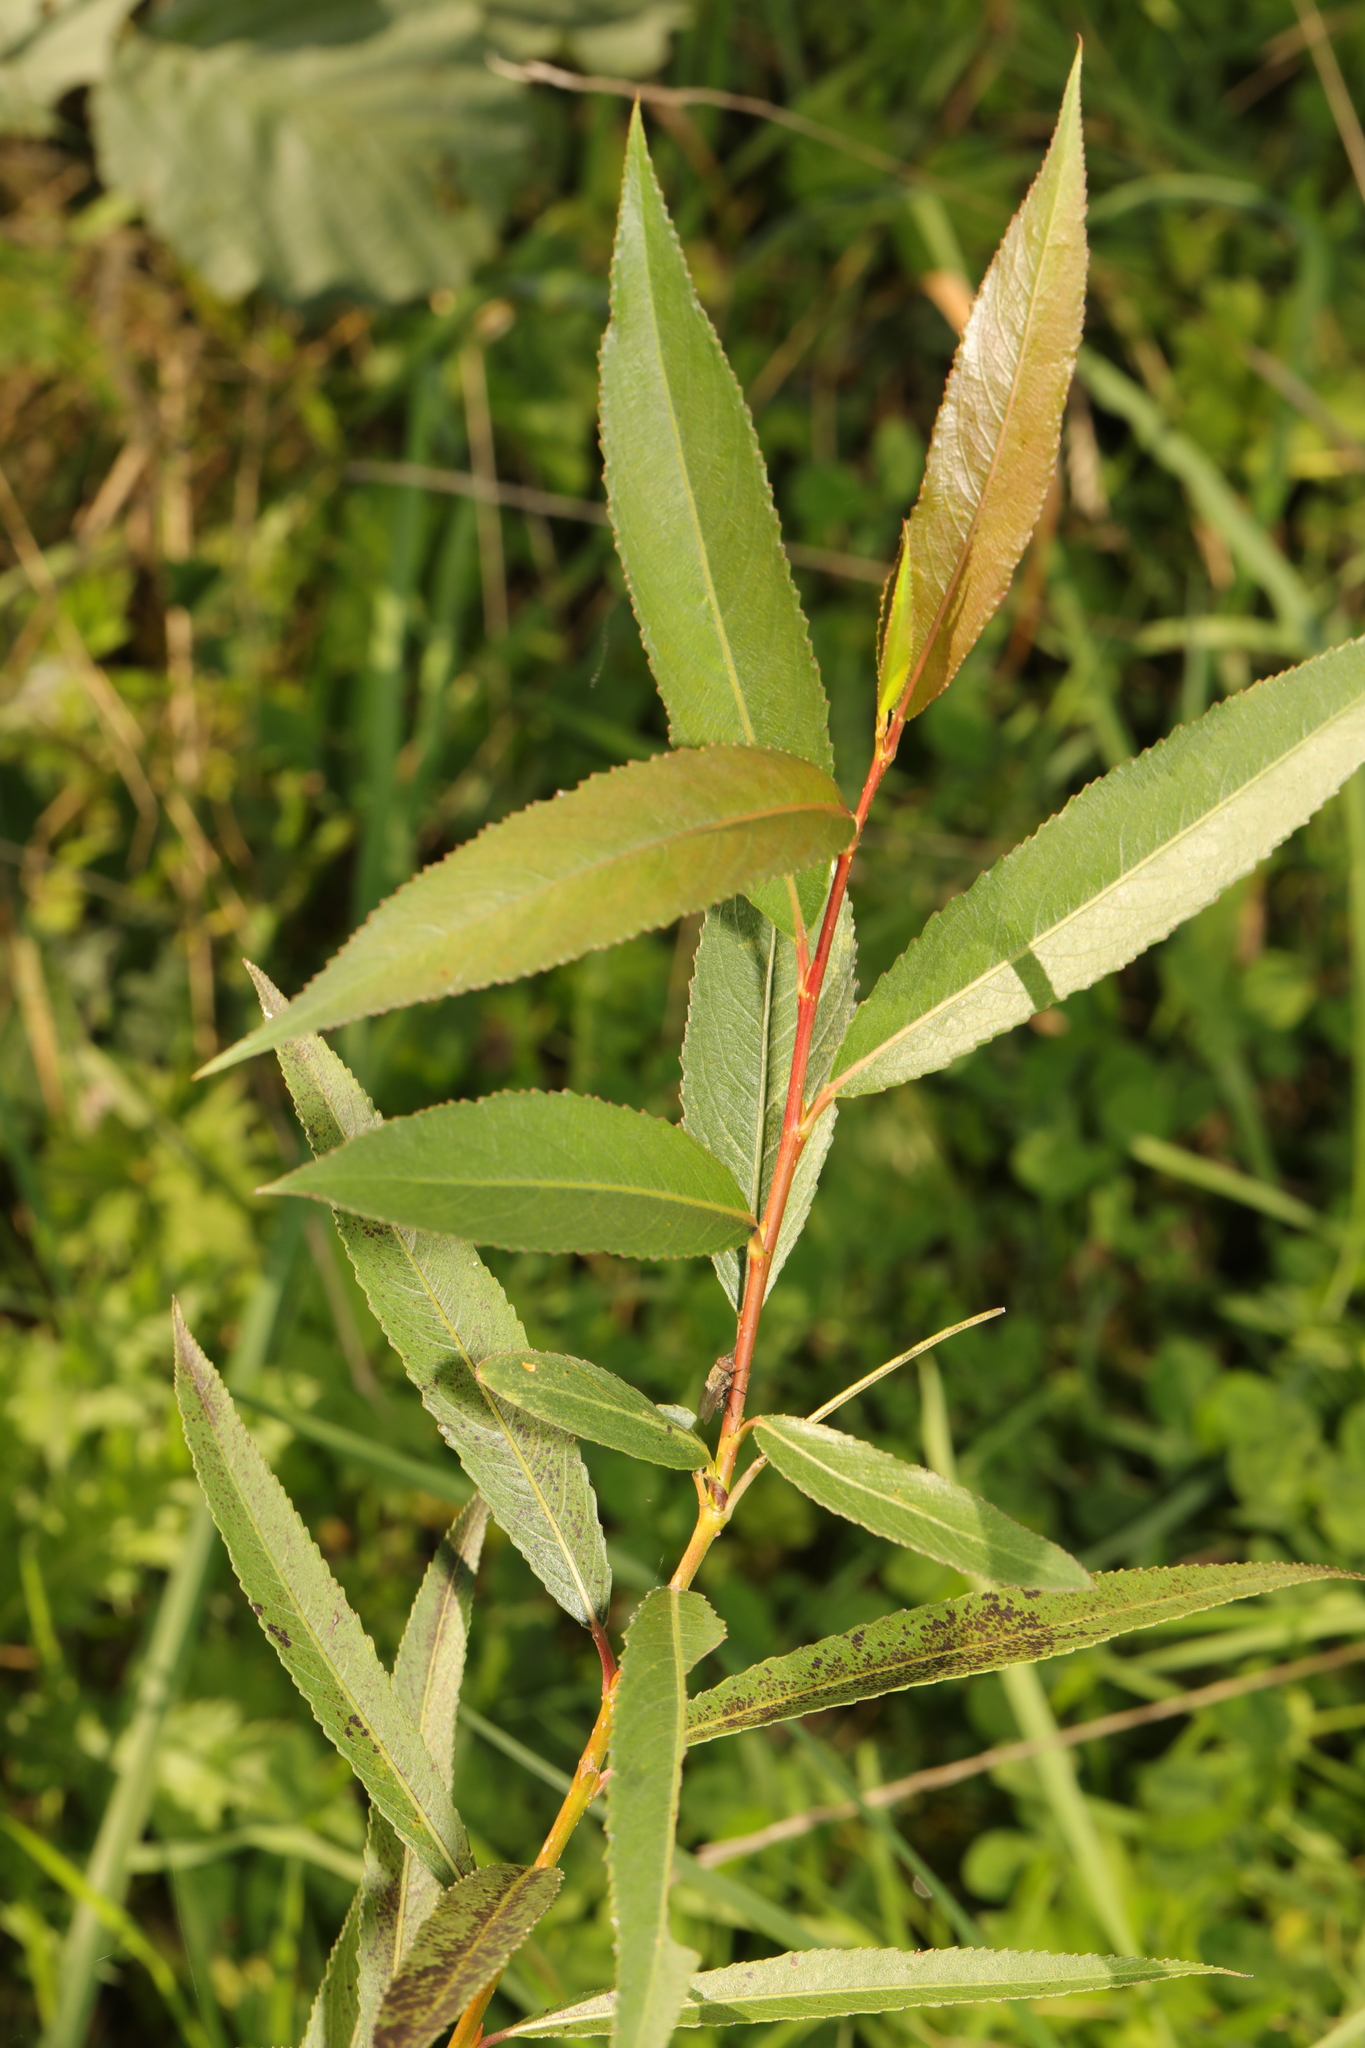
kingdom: Plantae
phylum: Tracheophyta
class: Magnoliopsida
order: Malpighiales
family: Salicaceae
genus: Salix
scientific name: Salix fragilis
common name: Crack willow
